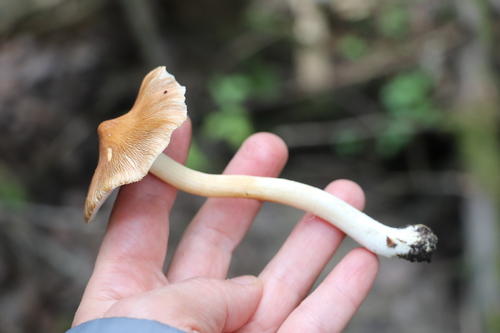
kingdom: Fungi
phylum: Basidiomycota
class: Agaricomycetes
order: Agaricales
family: Inocybaceae
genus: Inocybe
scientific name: Inocybe
